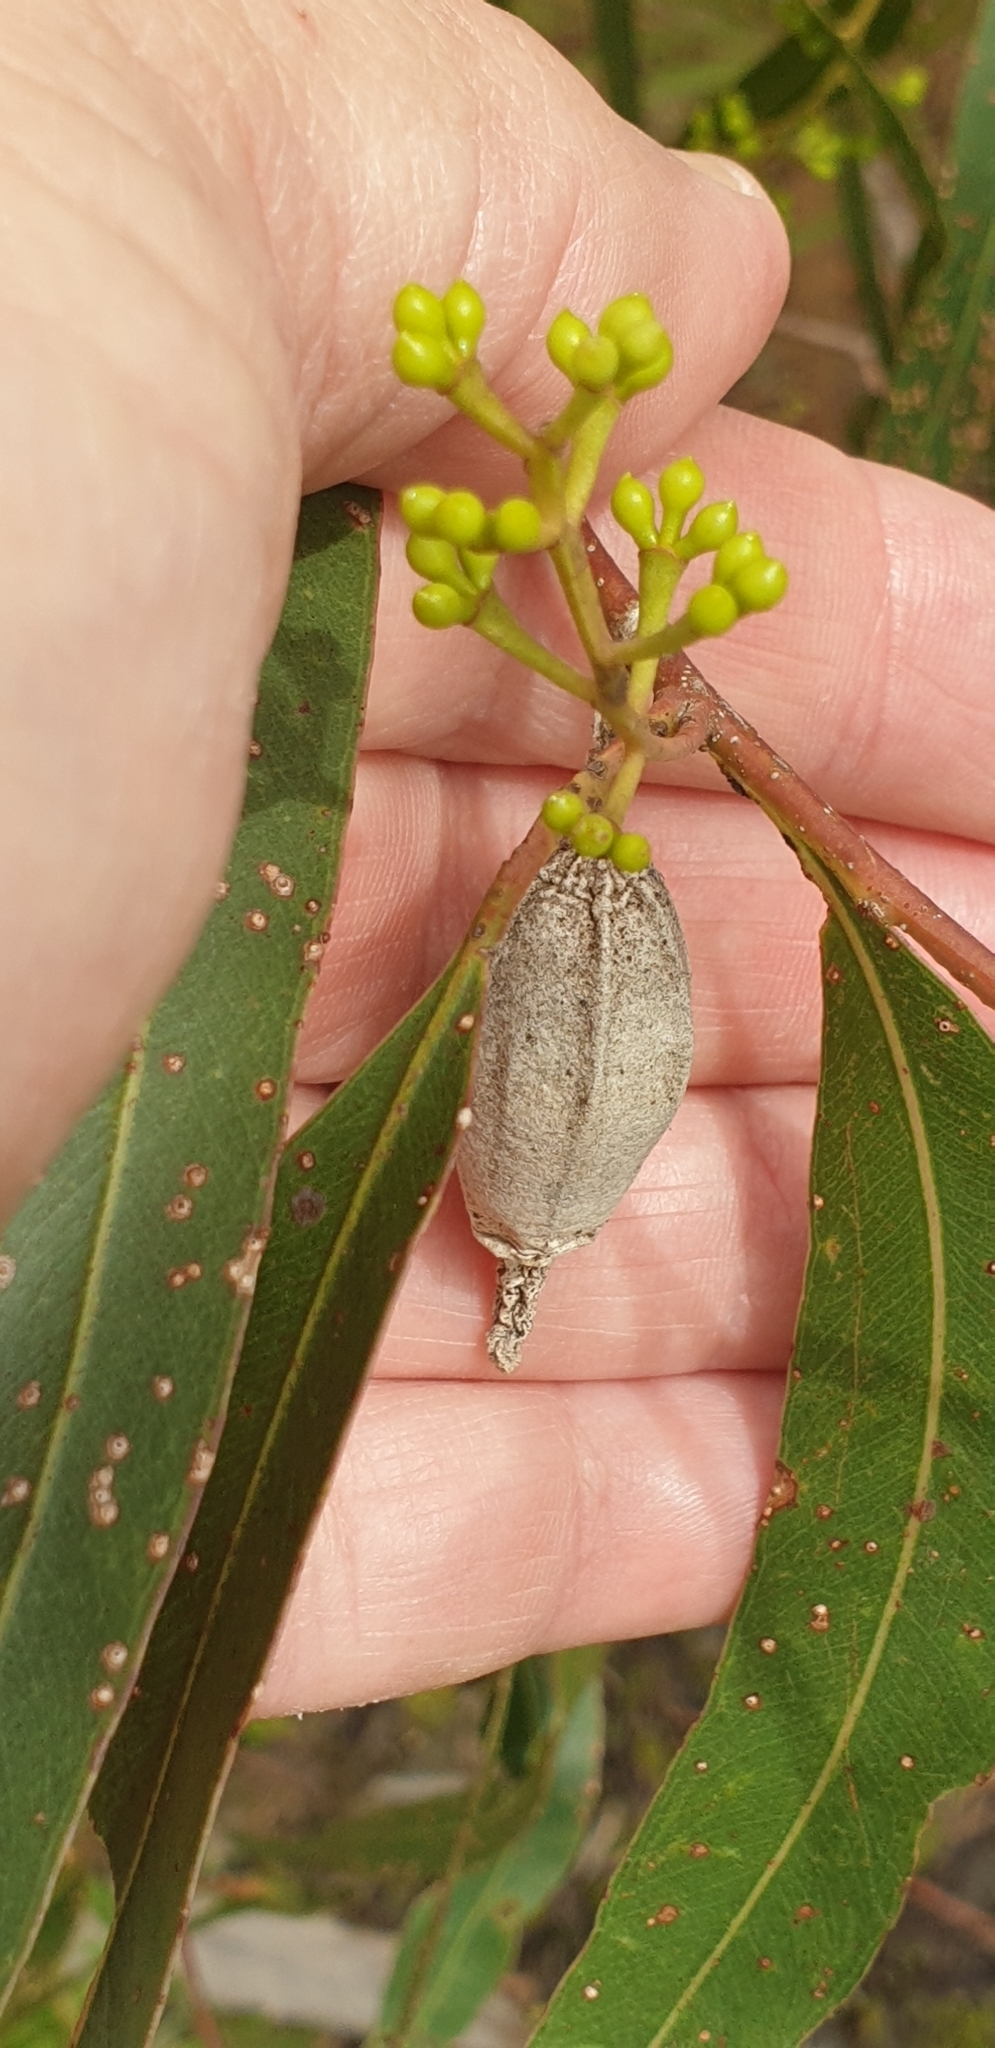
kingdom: Animalia
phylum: Arthropoda
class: Insecta
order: Lepidoptera
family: Psychidae
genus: Hyalarcta
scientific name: Hyalarcta nigrescens
